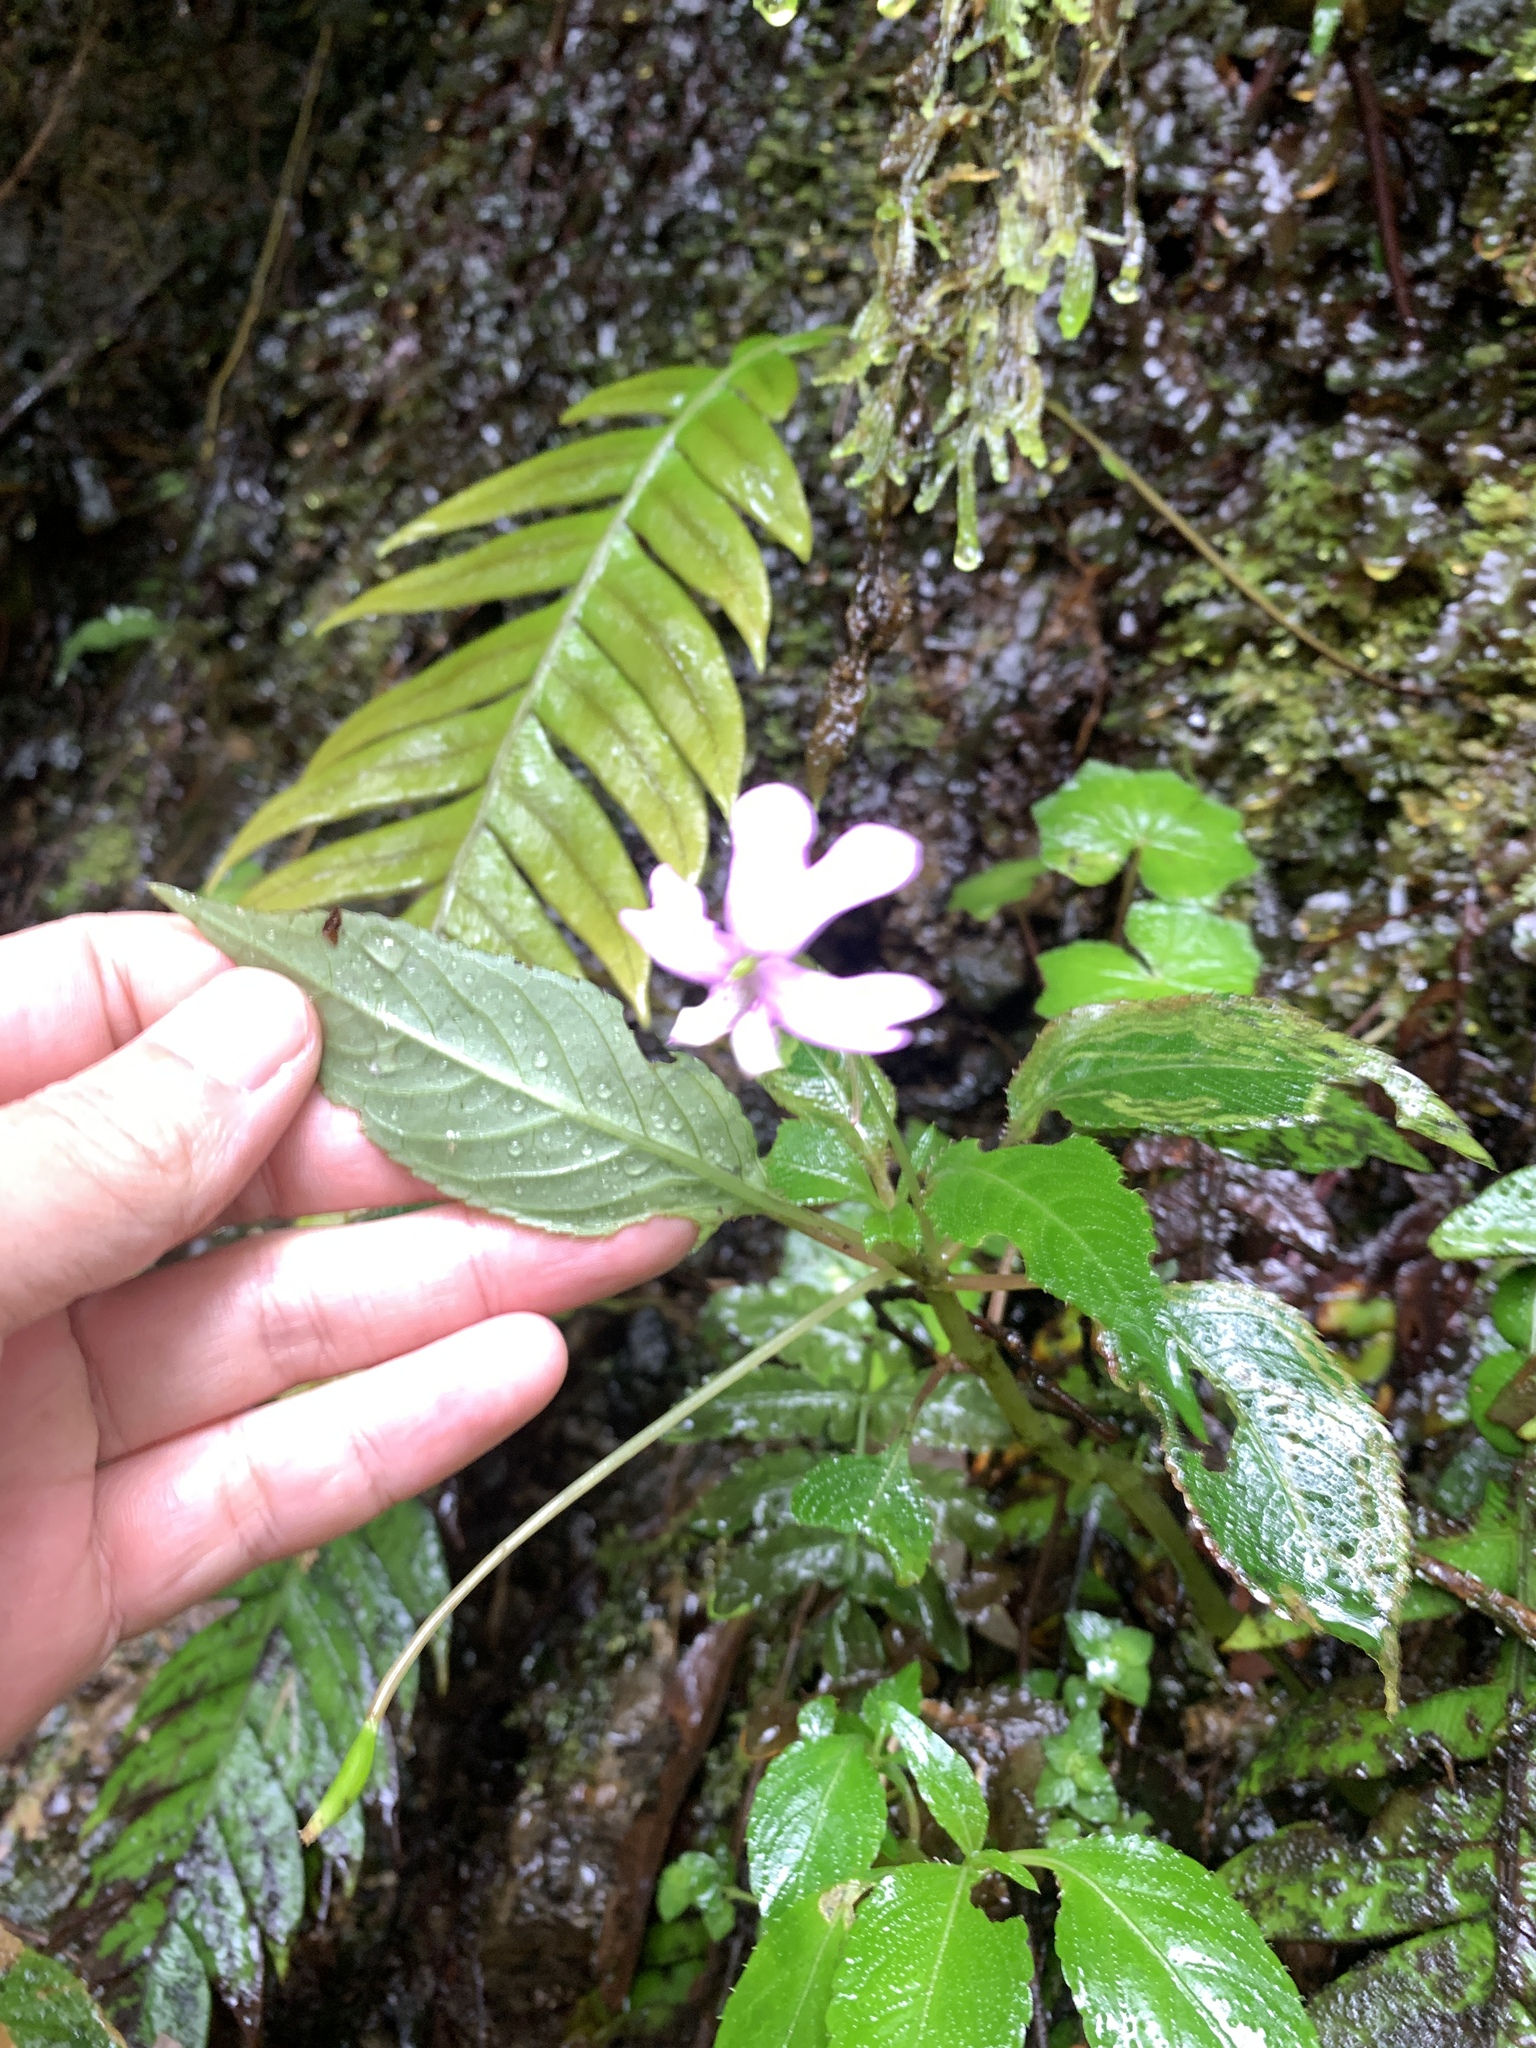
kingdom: Plantae
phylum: Tracheophyta
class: Magnoliopsida
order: Ericales
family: Balsaminaceae
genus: Impatiens
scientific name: Impatiens kinabaluensis
